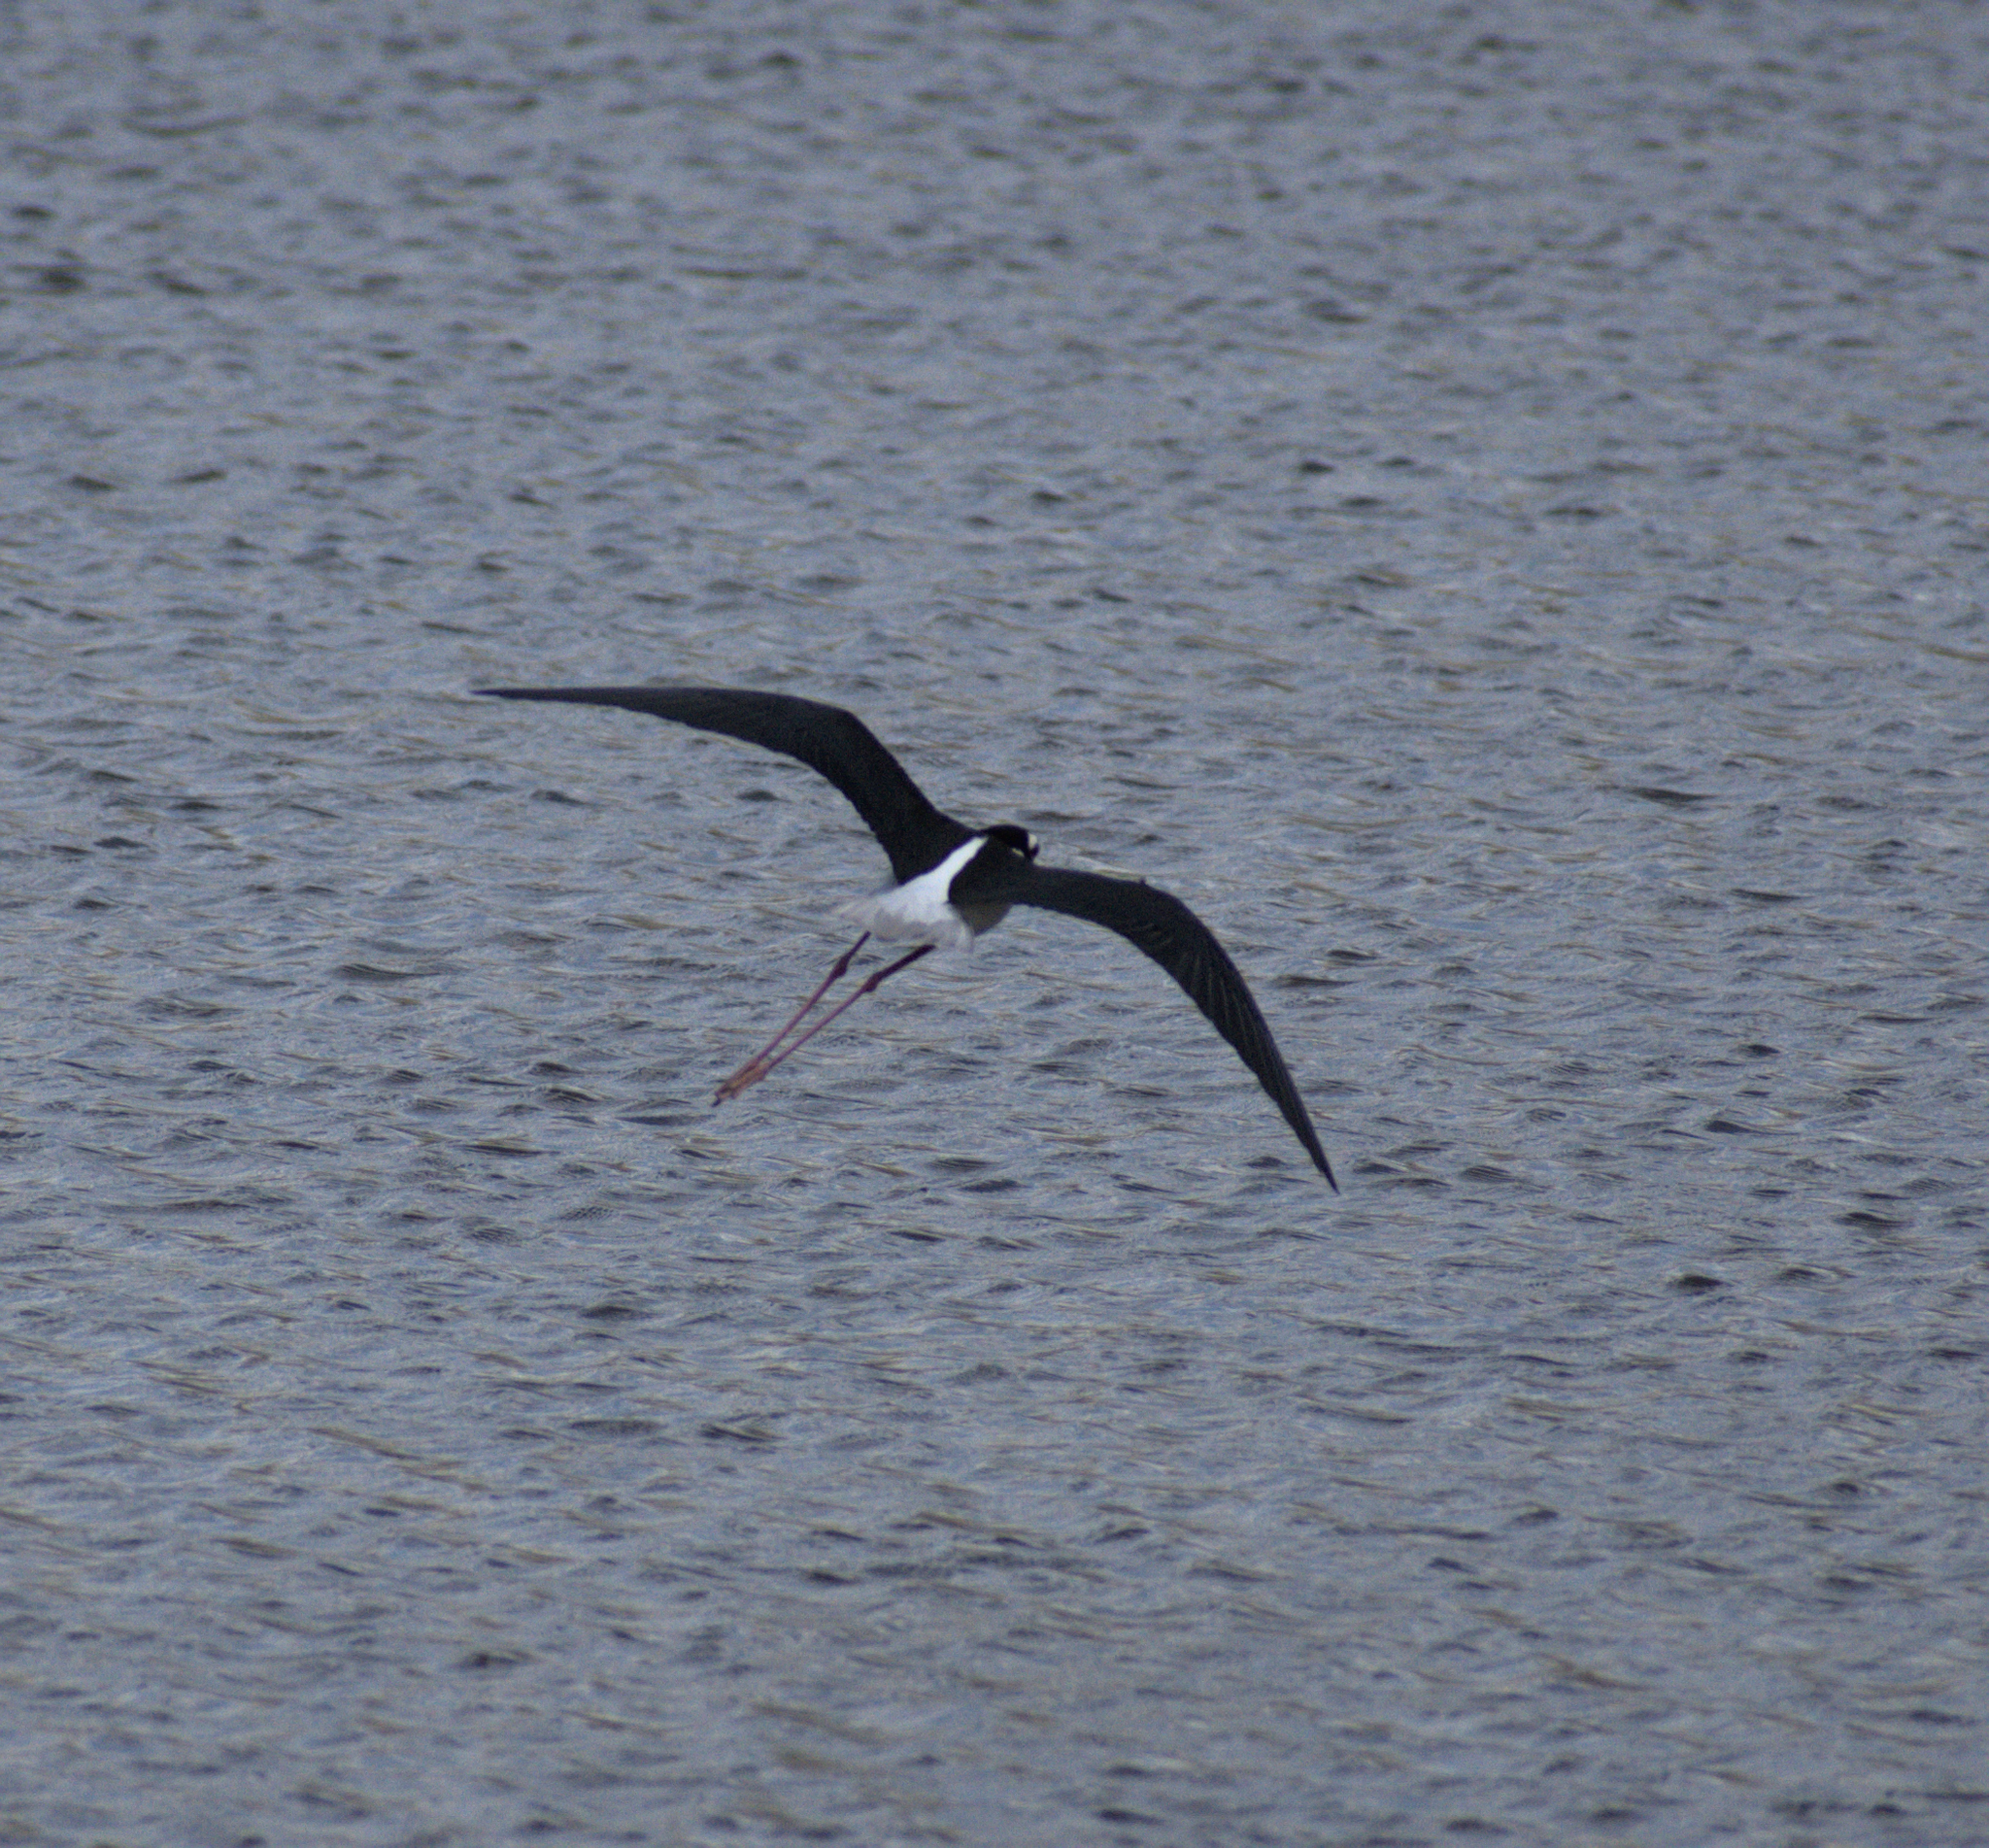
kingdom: Animalia
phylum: Chordata
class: Aves
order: Charadriiformes
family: Recurvirostridae
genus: Himantopus
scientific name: Himantopus mexicanus
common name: Black-necked stilt
